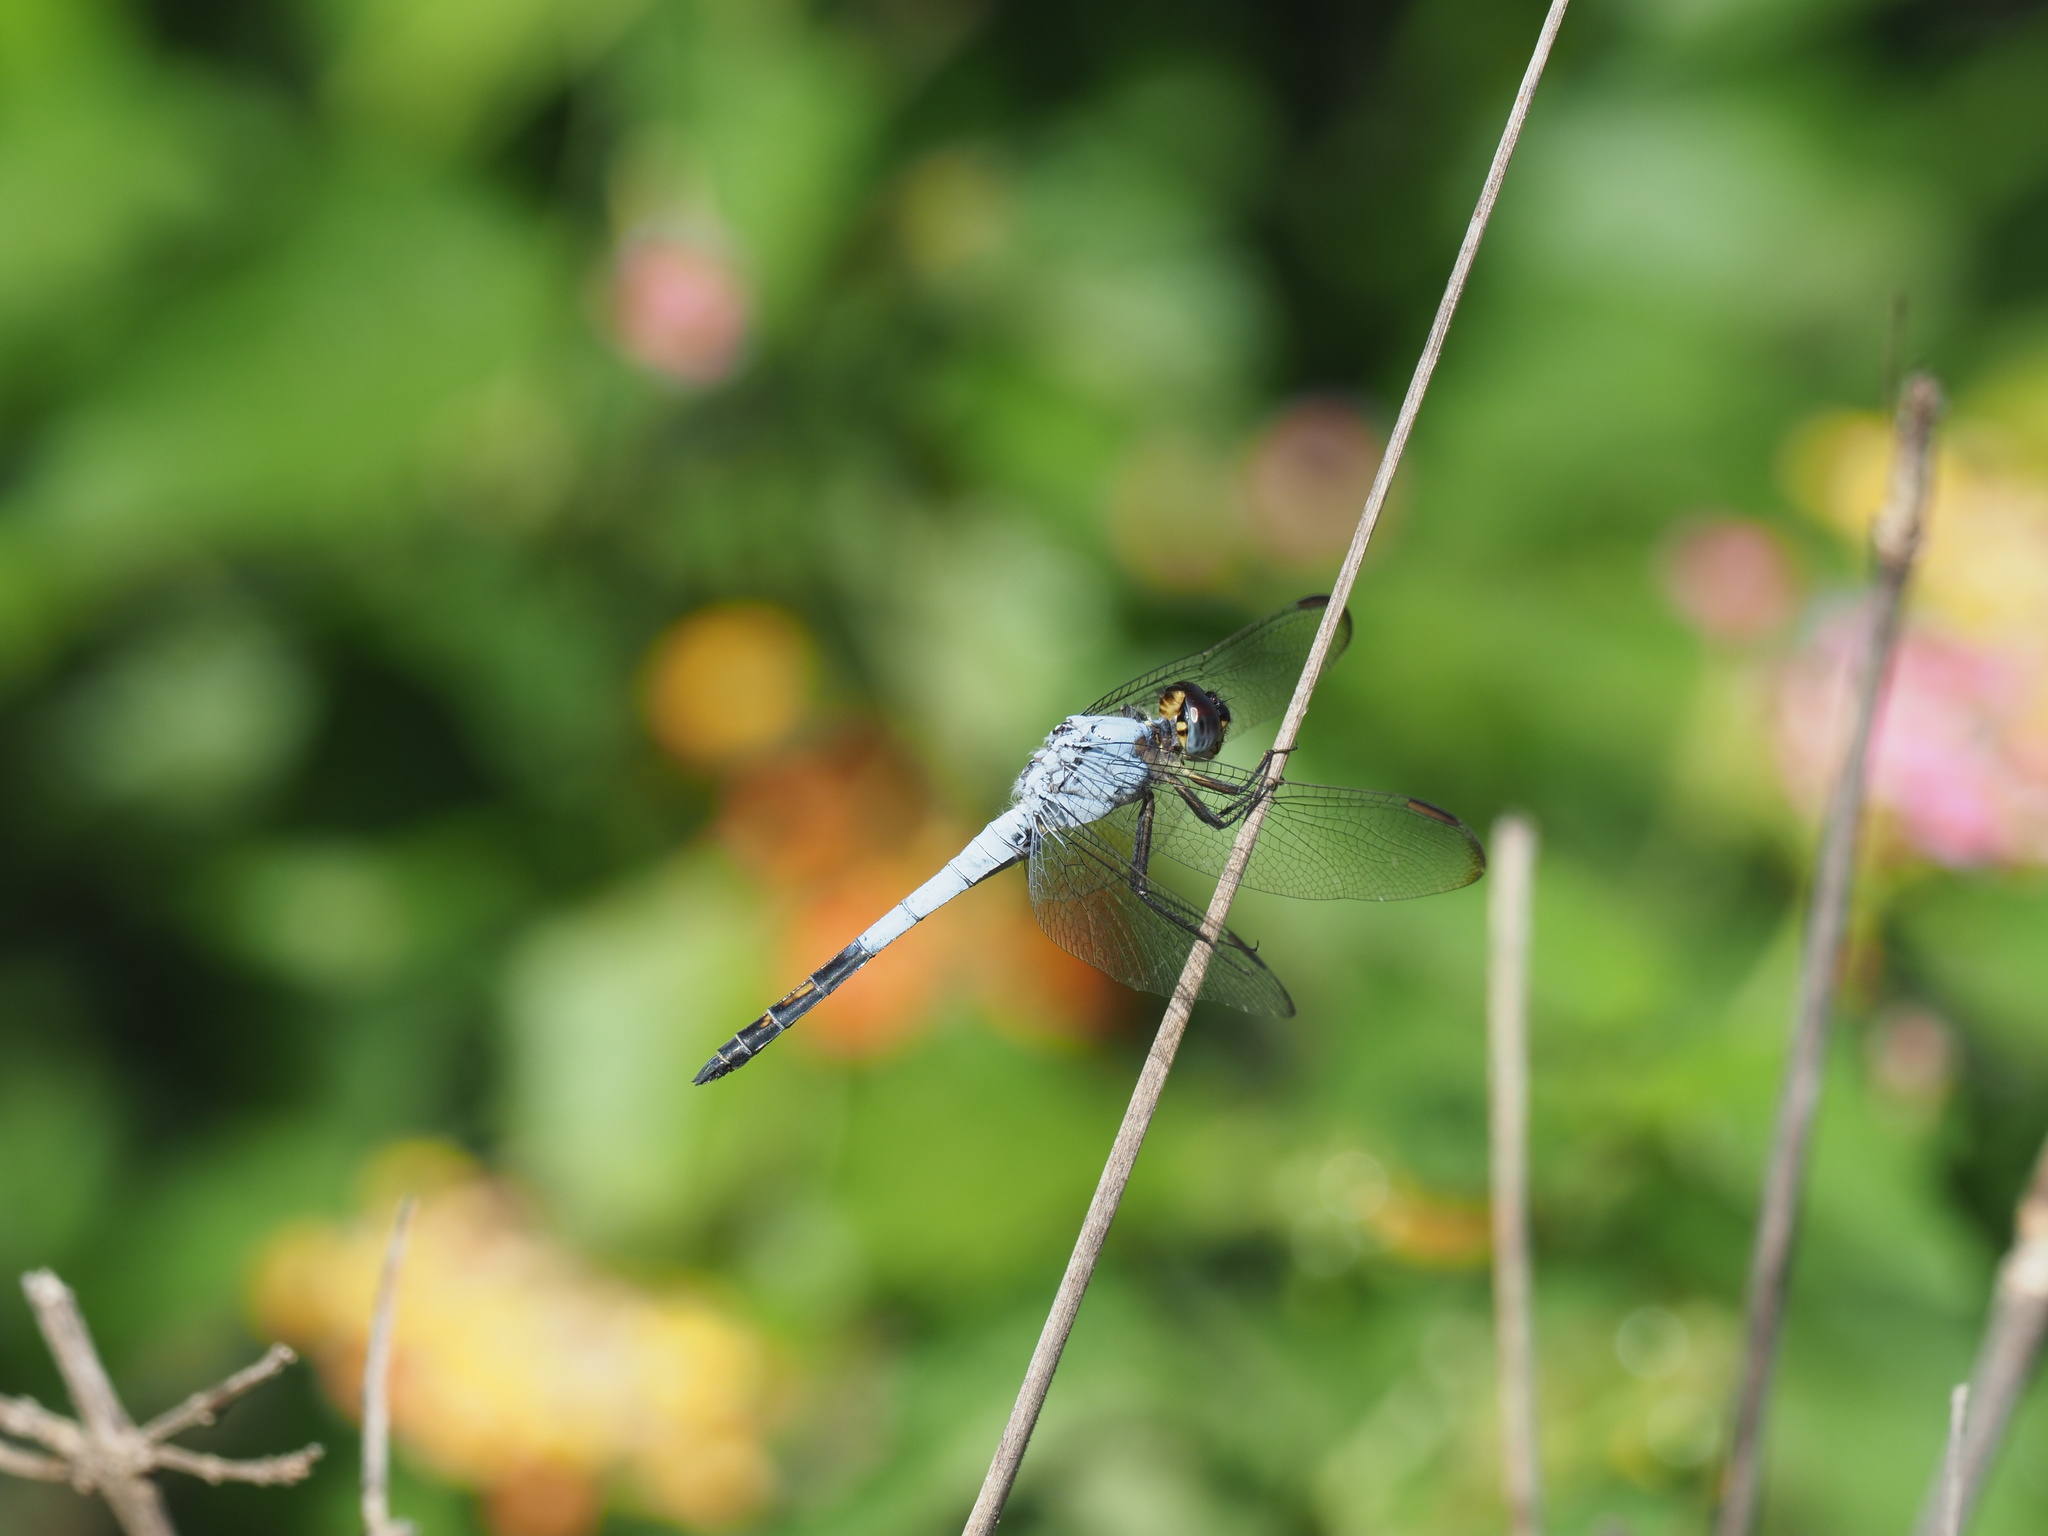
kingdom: Animalia
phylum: Arthropoda
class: Insecta
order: Odonata
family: Libellulidae
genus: Nesciothemis
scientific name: Nesciothemis farinosa
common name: Eastern blacktail
